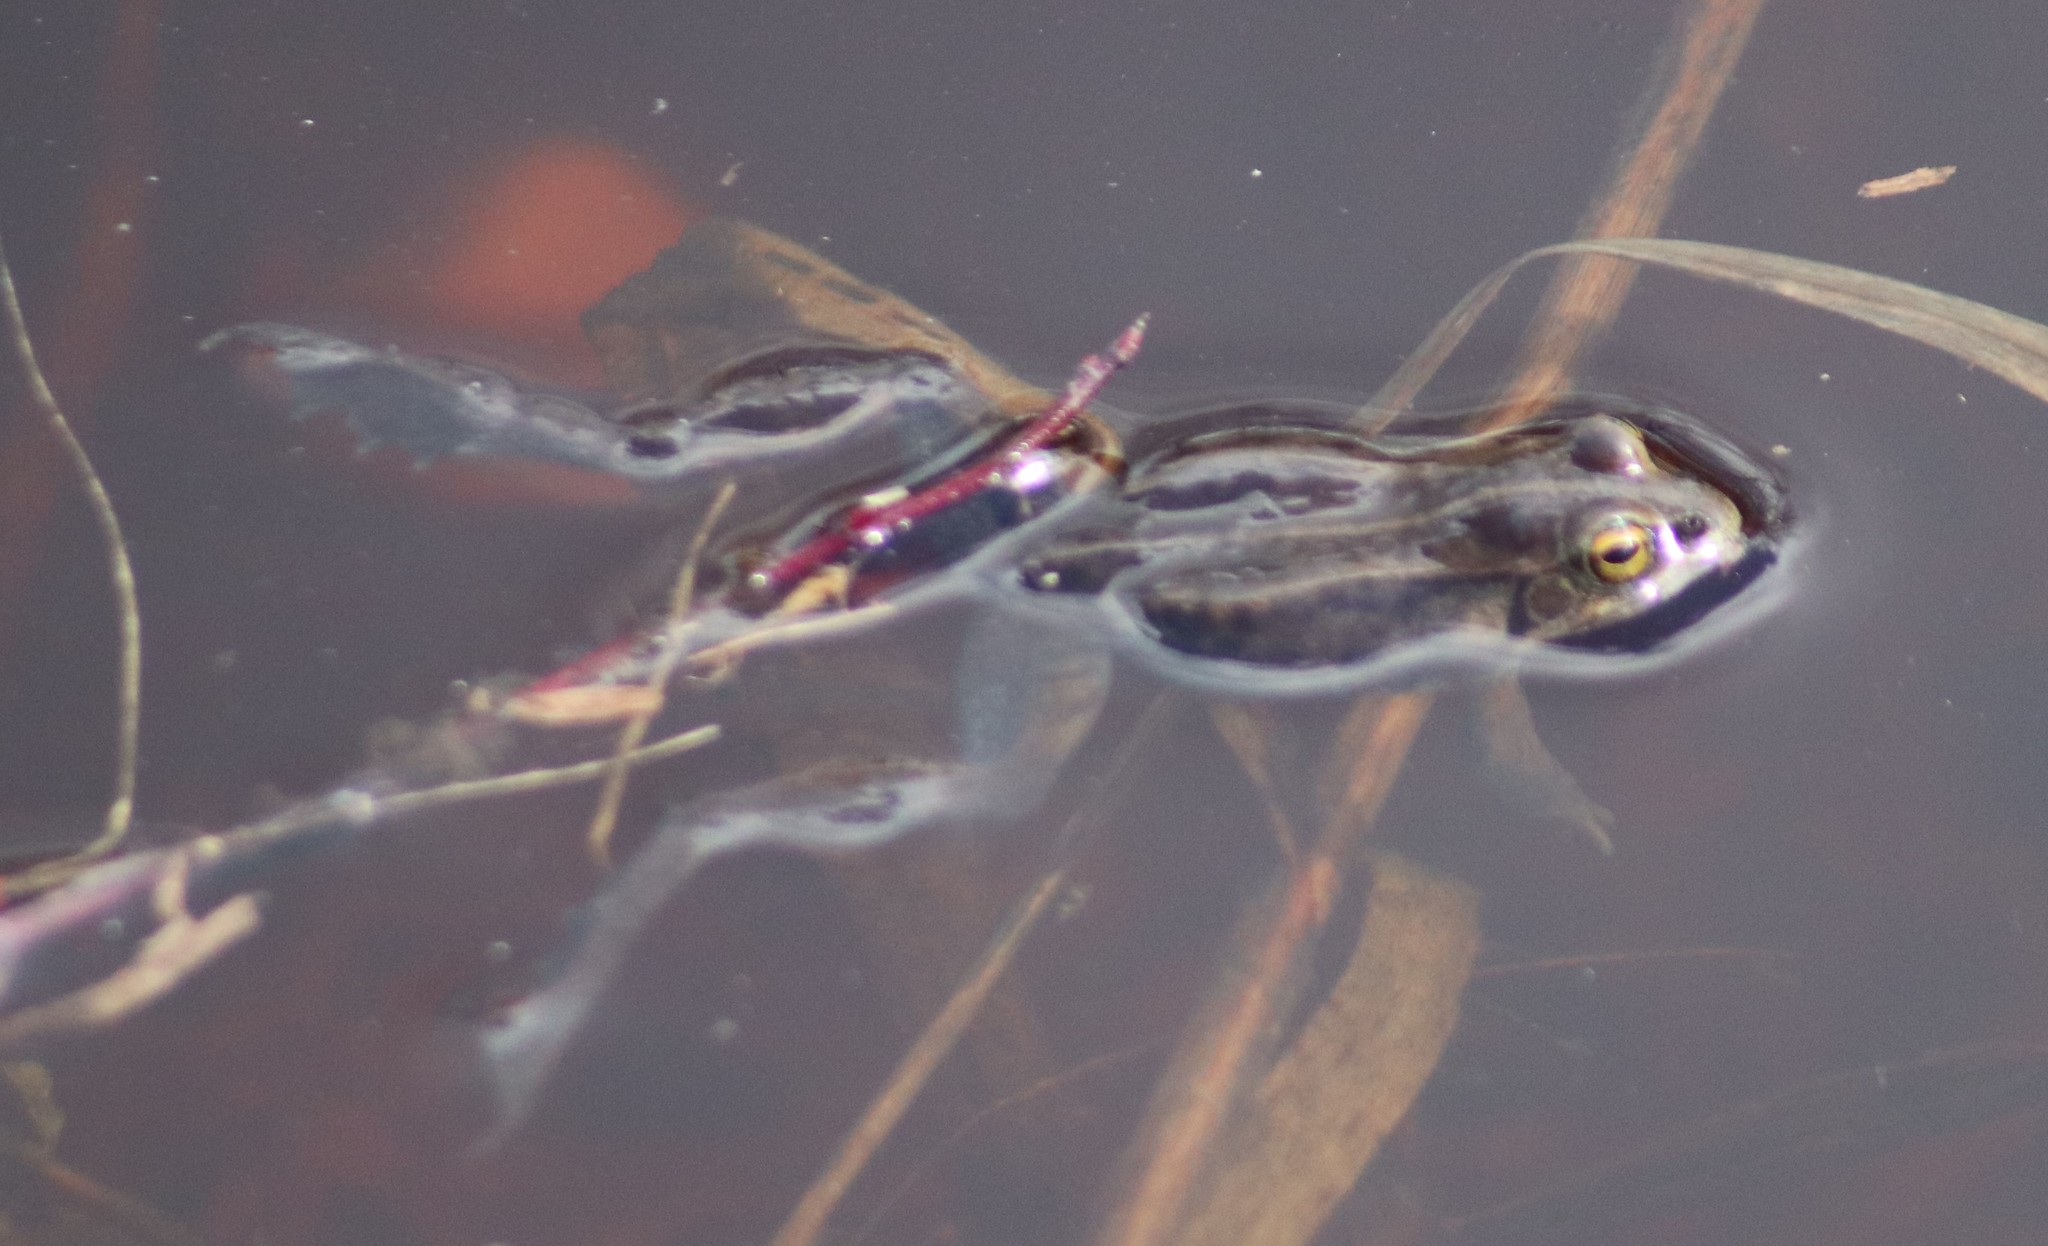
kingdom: Animalia
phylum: Chordata
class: Amphibia
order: Anura
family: Hylidae
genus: Pseudacris
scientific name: Pseudacris maculata
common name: Boreal chorus frog
